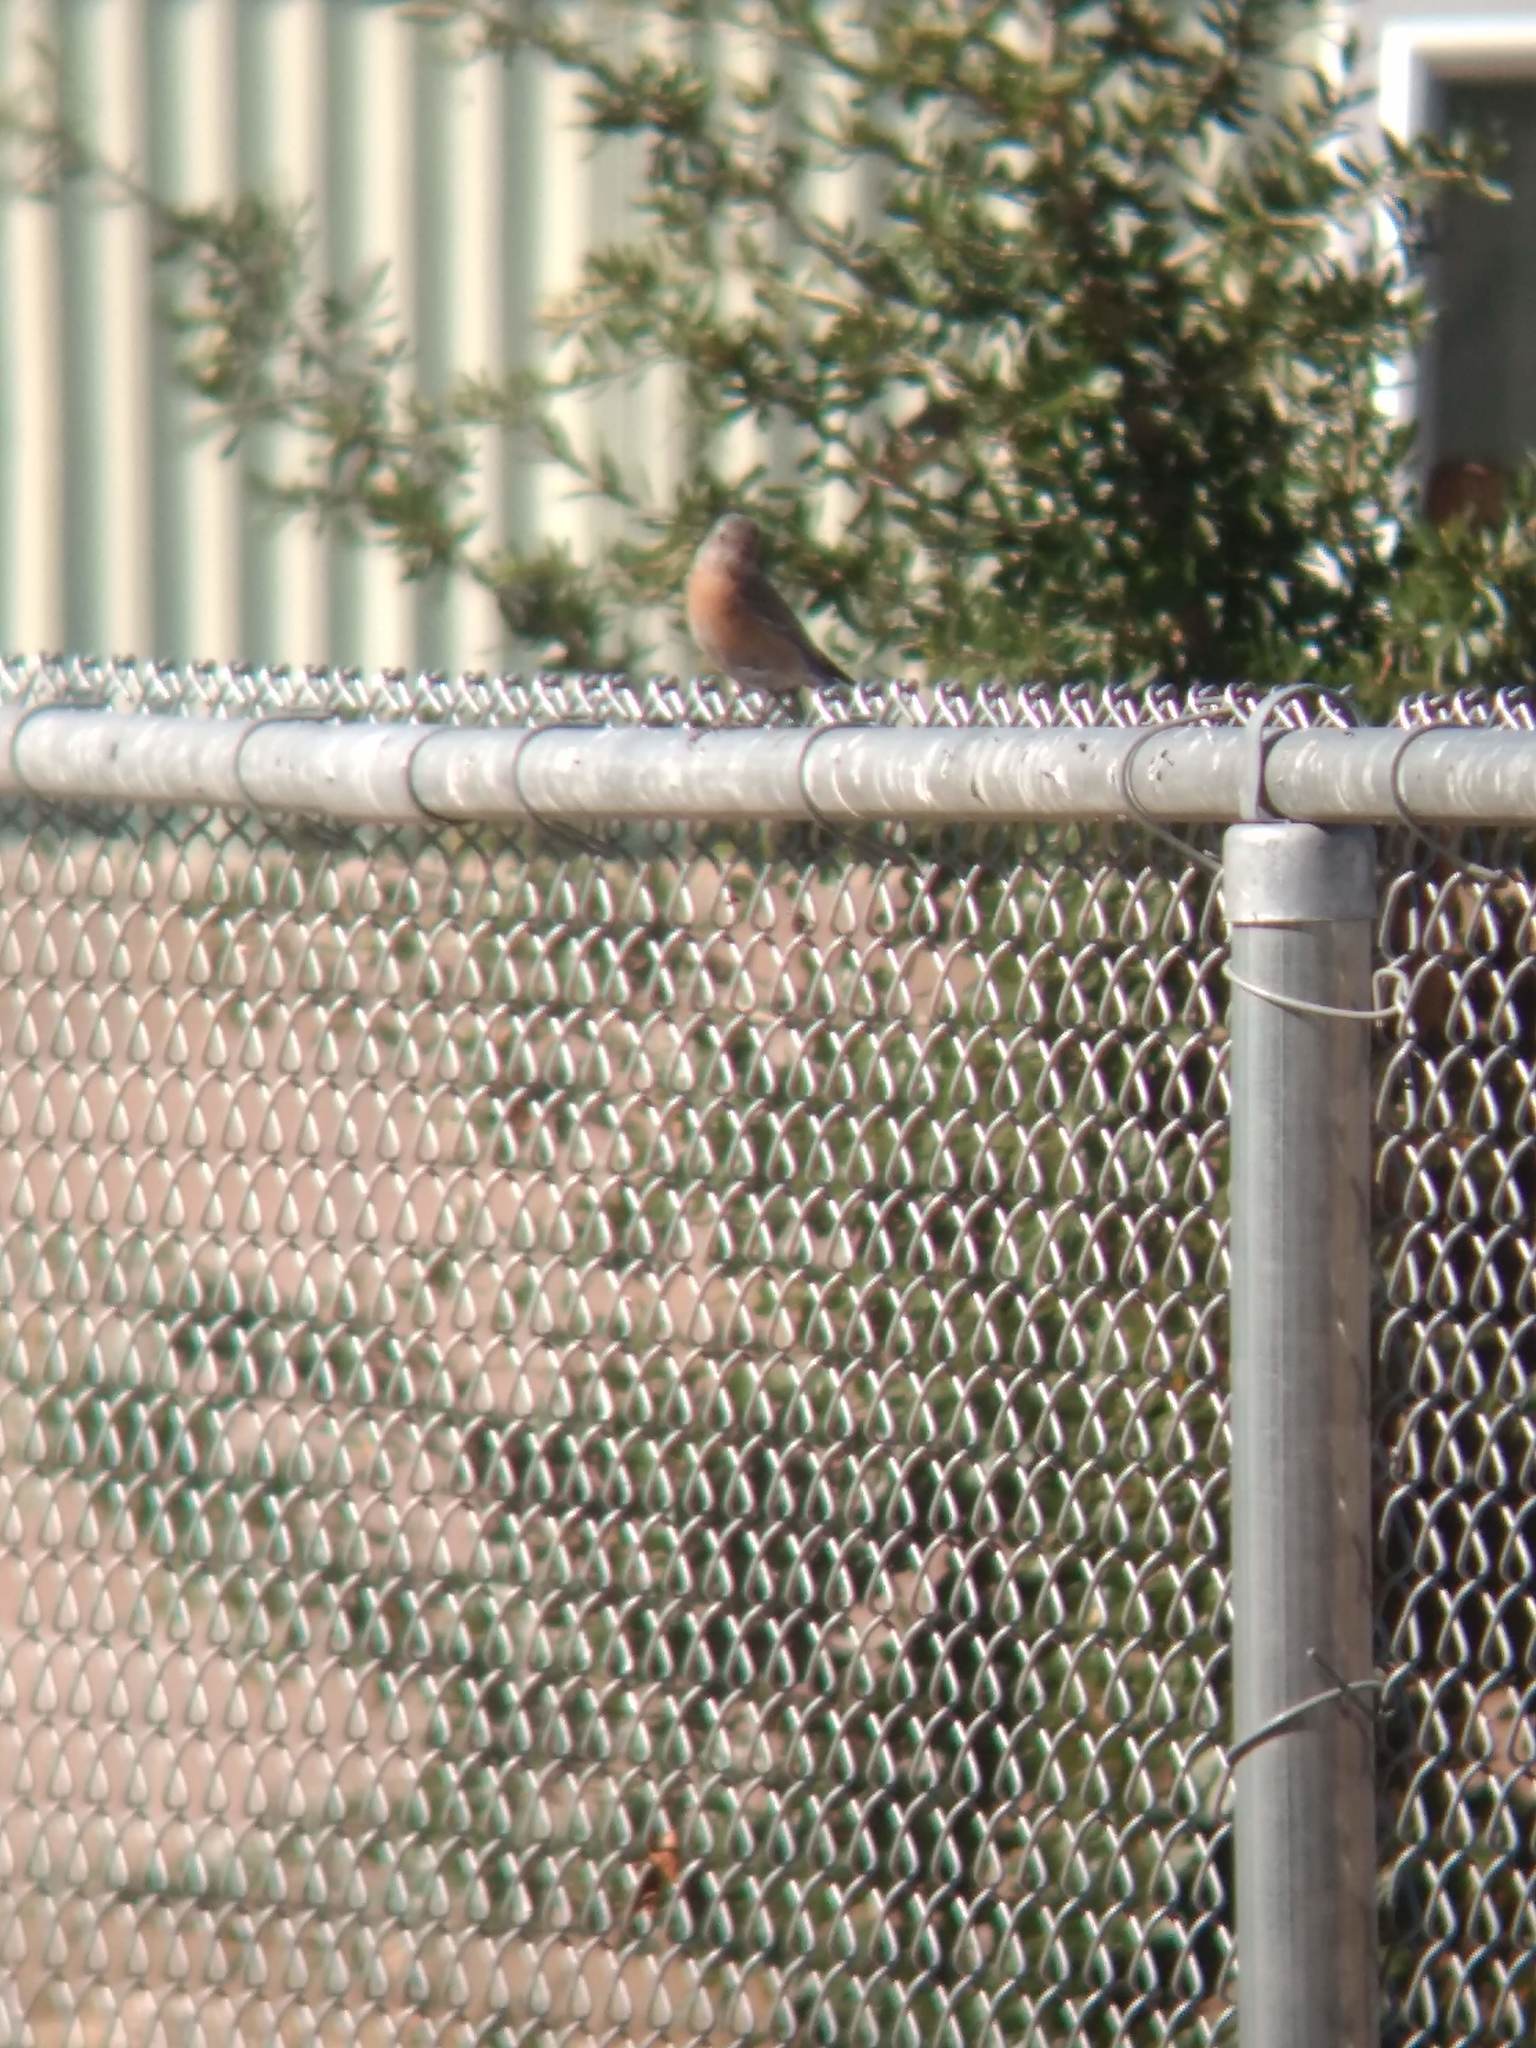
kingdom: Animalia
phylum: Chordata
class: Aves
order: Passeriformes
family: Turdidae
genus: Sialia
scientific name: Sialia mexicana
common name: Western bluebird
